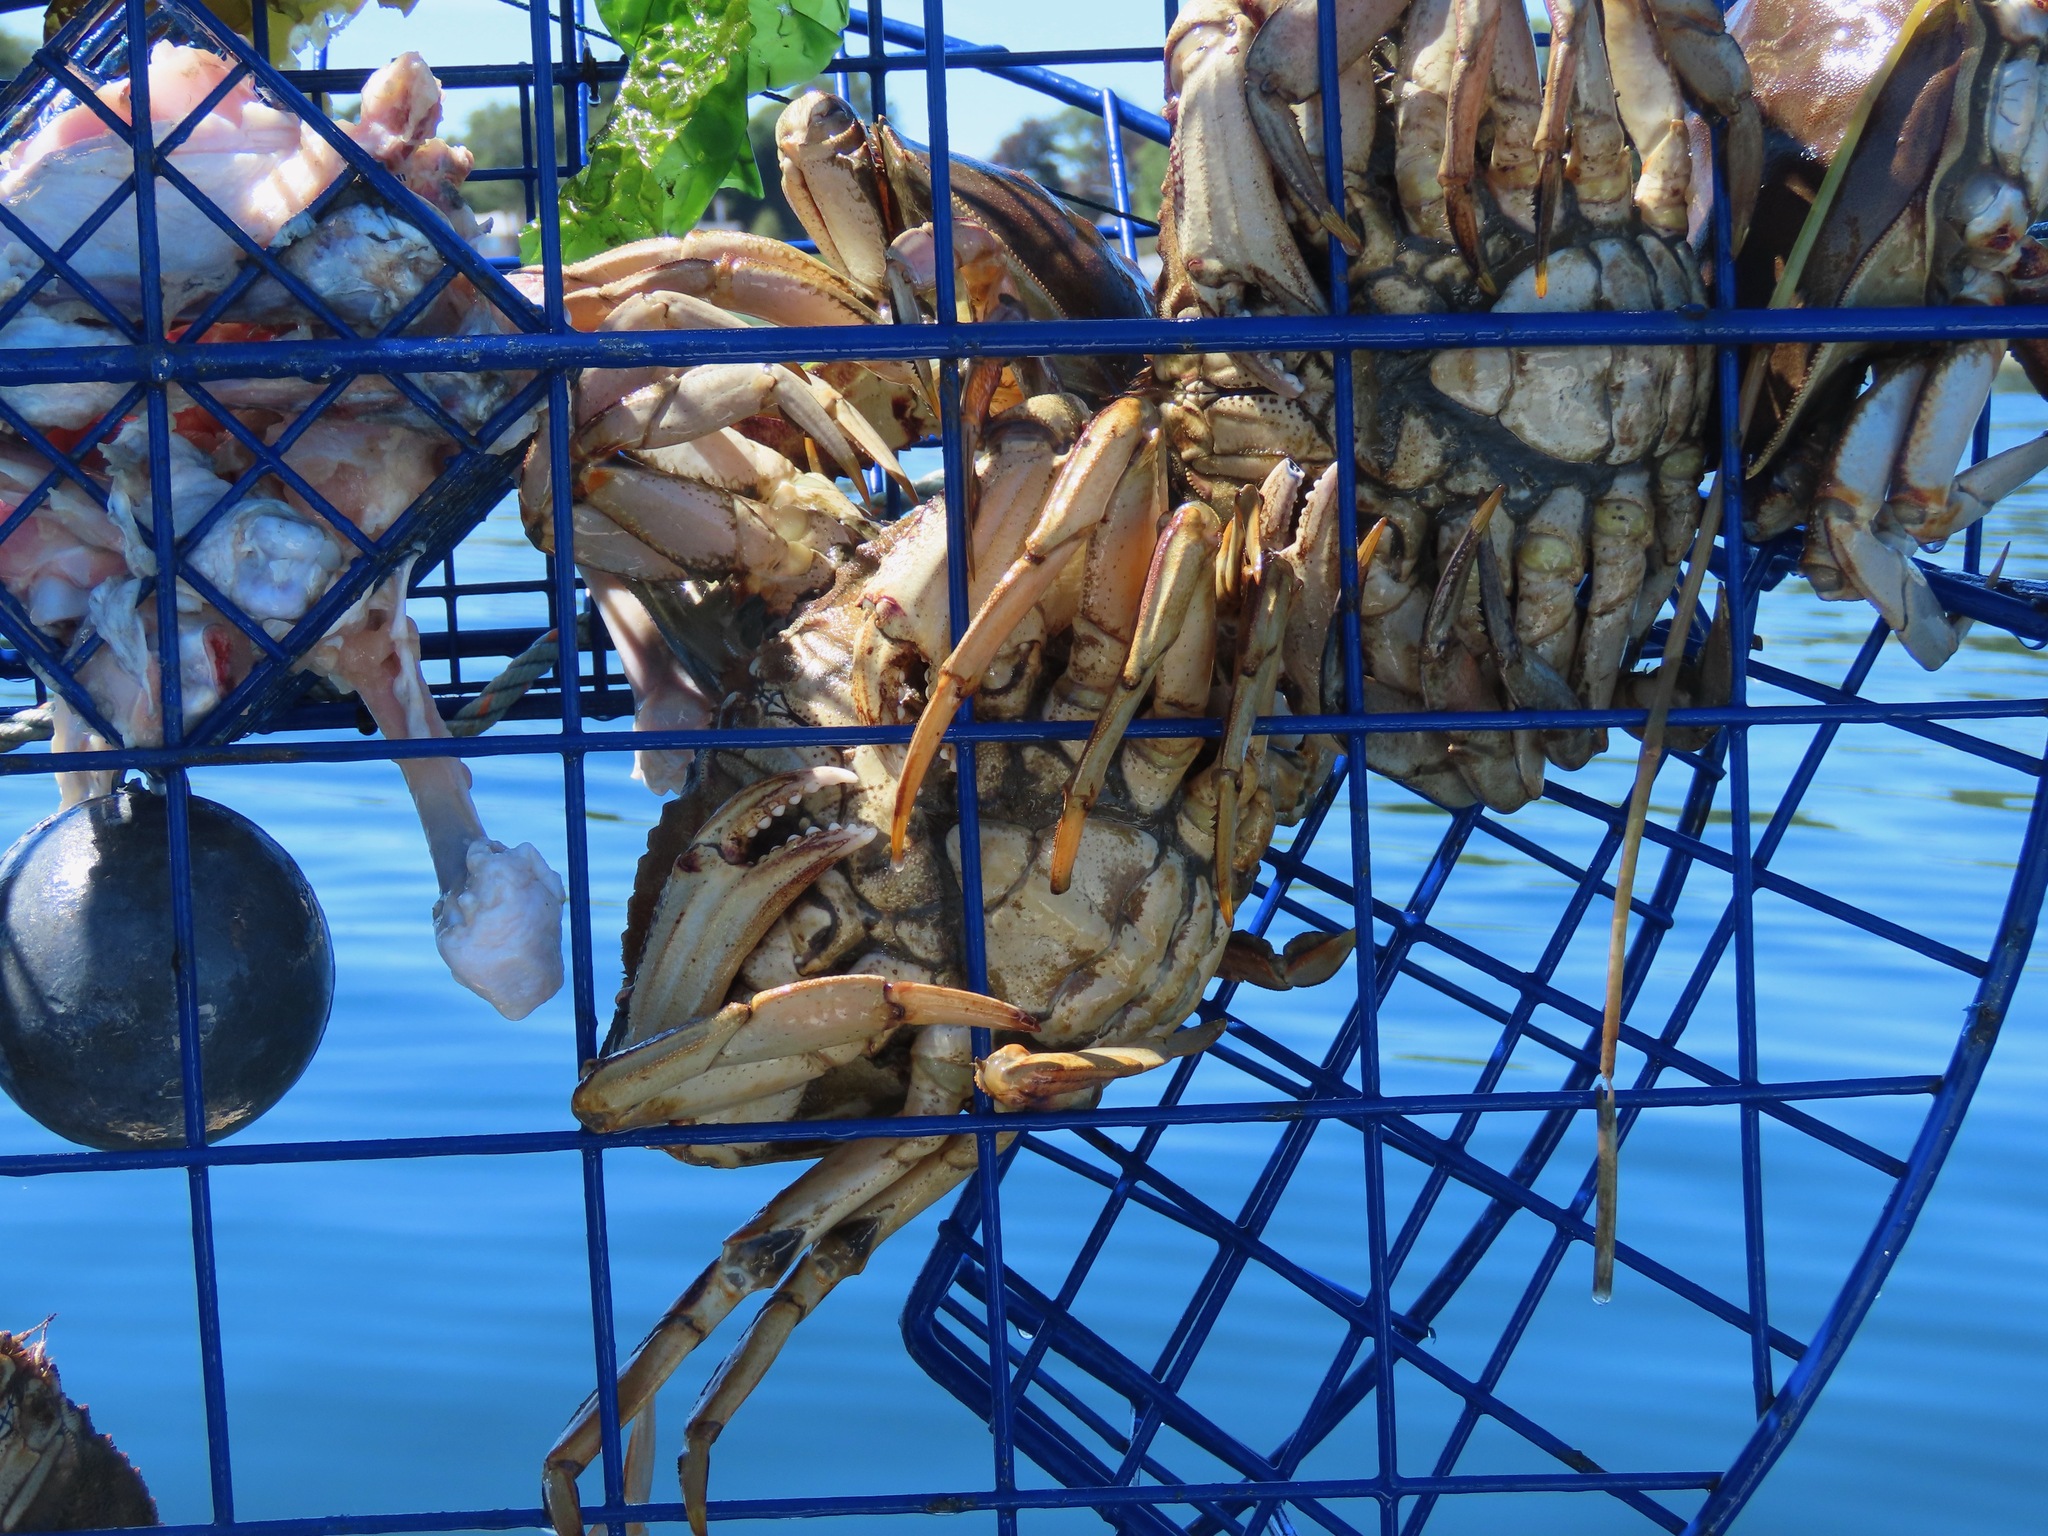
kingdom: Animalia
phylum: Arthropoda
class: Malacostraca
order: Decapoda
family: Cancridae
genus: Metacarcinus
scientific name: Metacarcinus magister
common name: Californian crab
